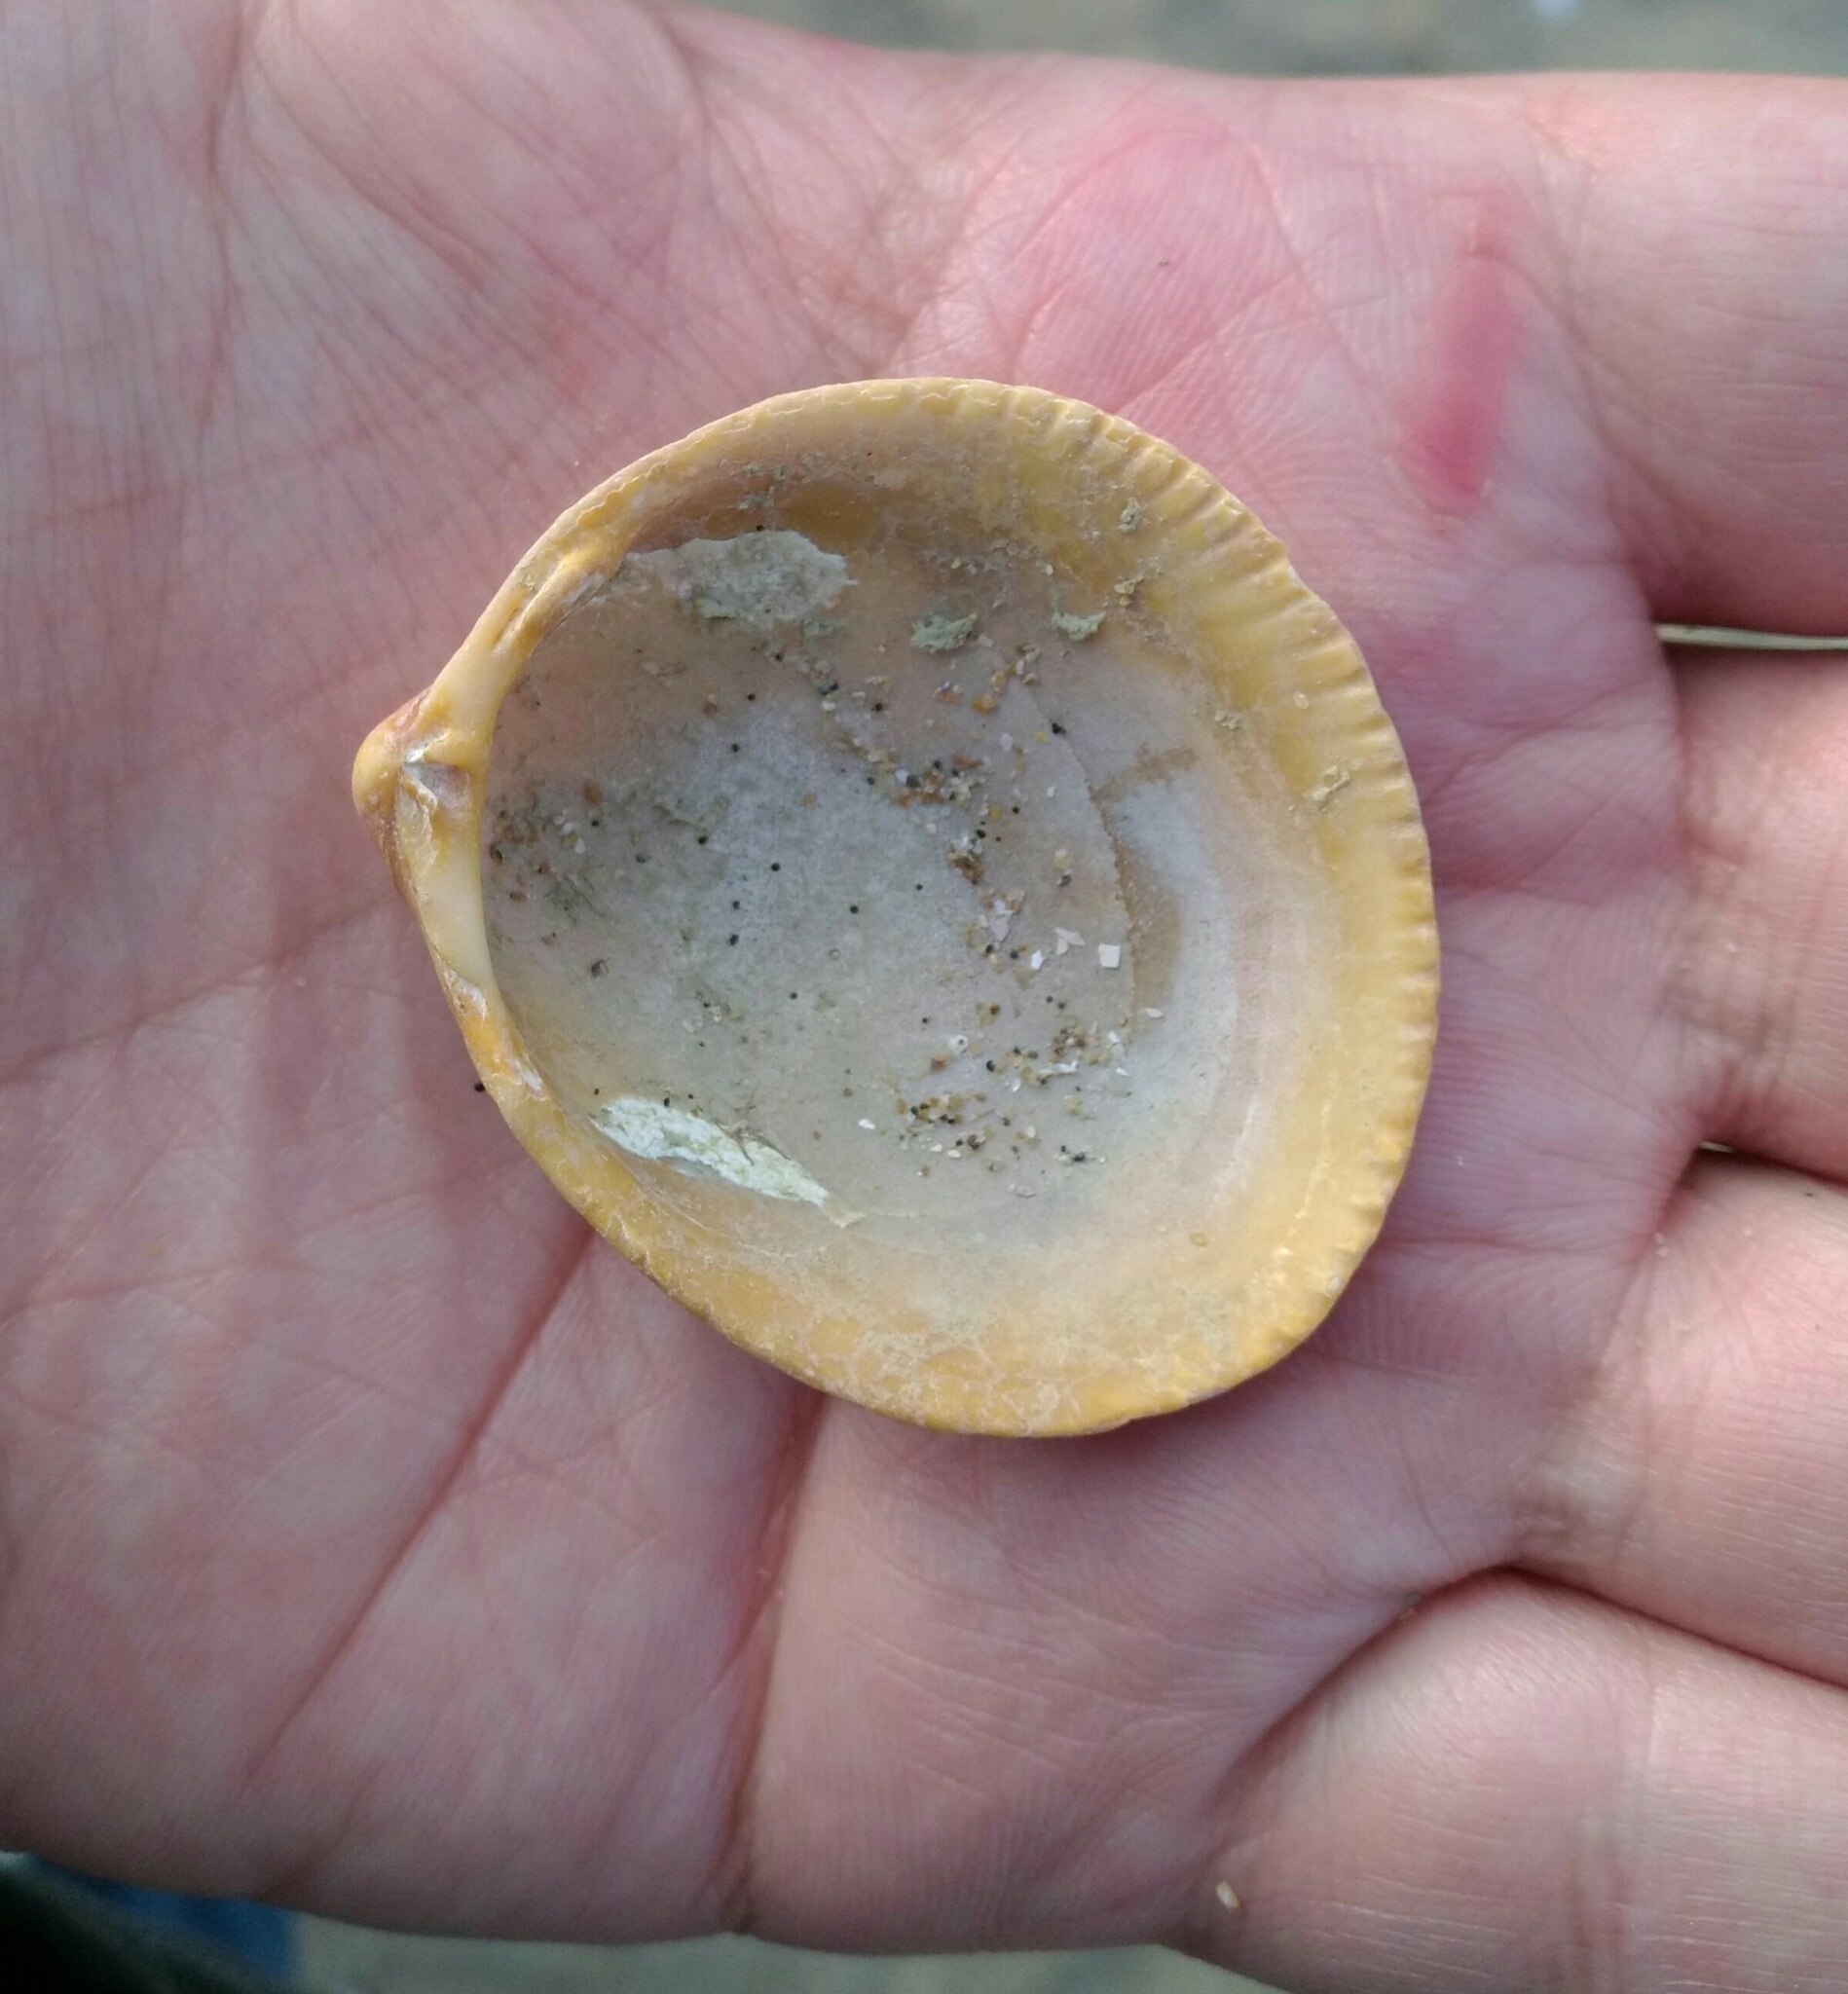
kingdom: Animalia
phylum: Mollusca
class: Bivalvia
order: Cardiida
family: Cardiidae
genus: Laevicardium
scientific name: Laevicardium crassum
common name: Norway cockle
